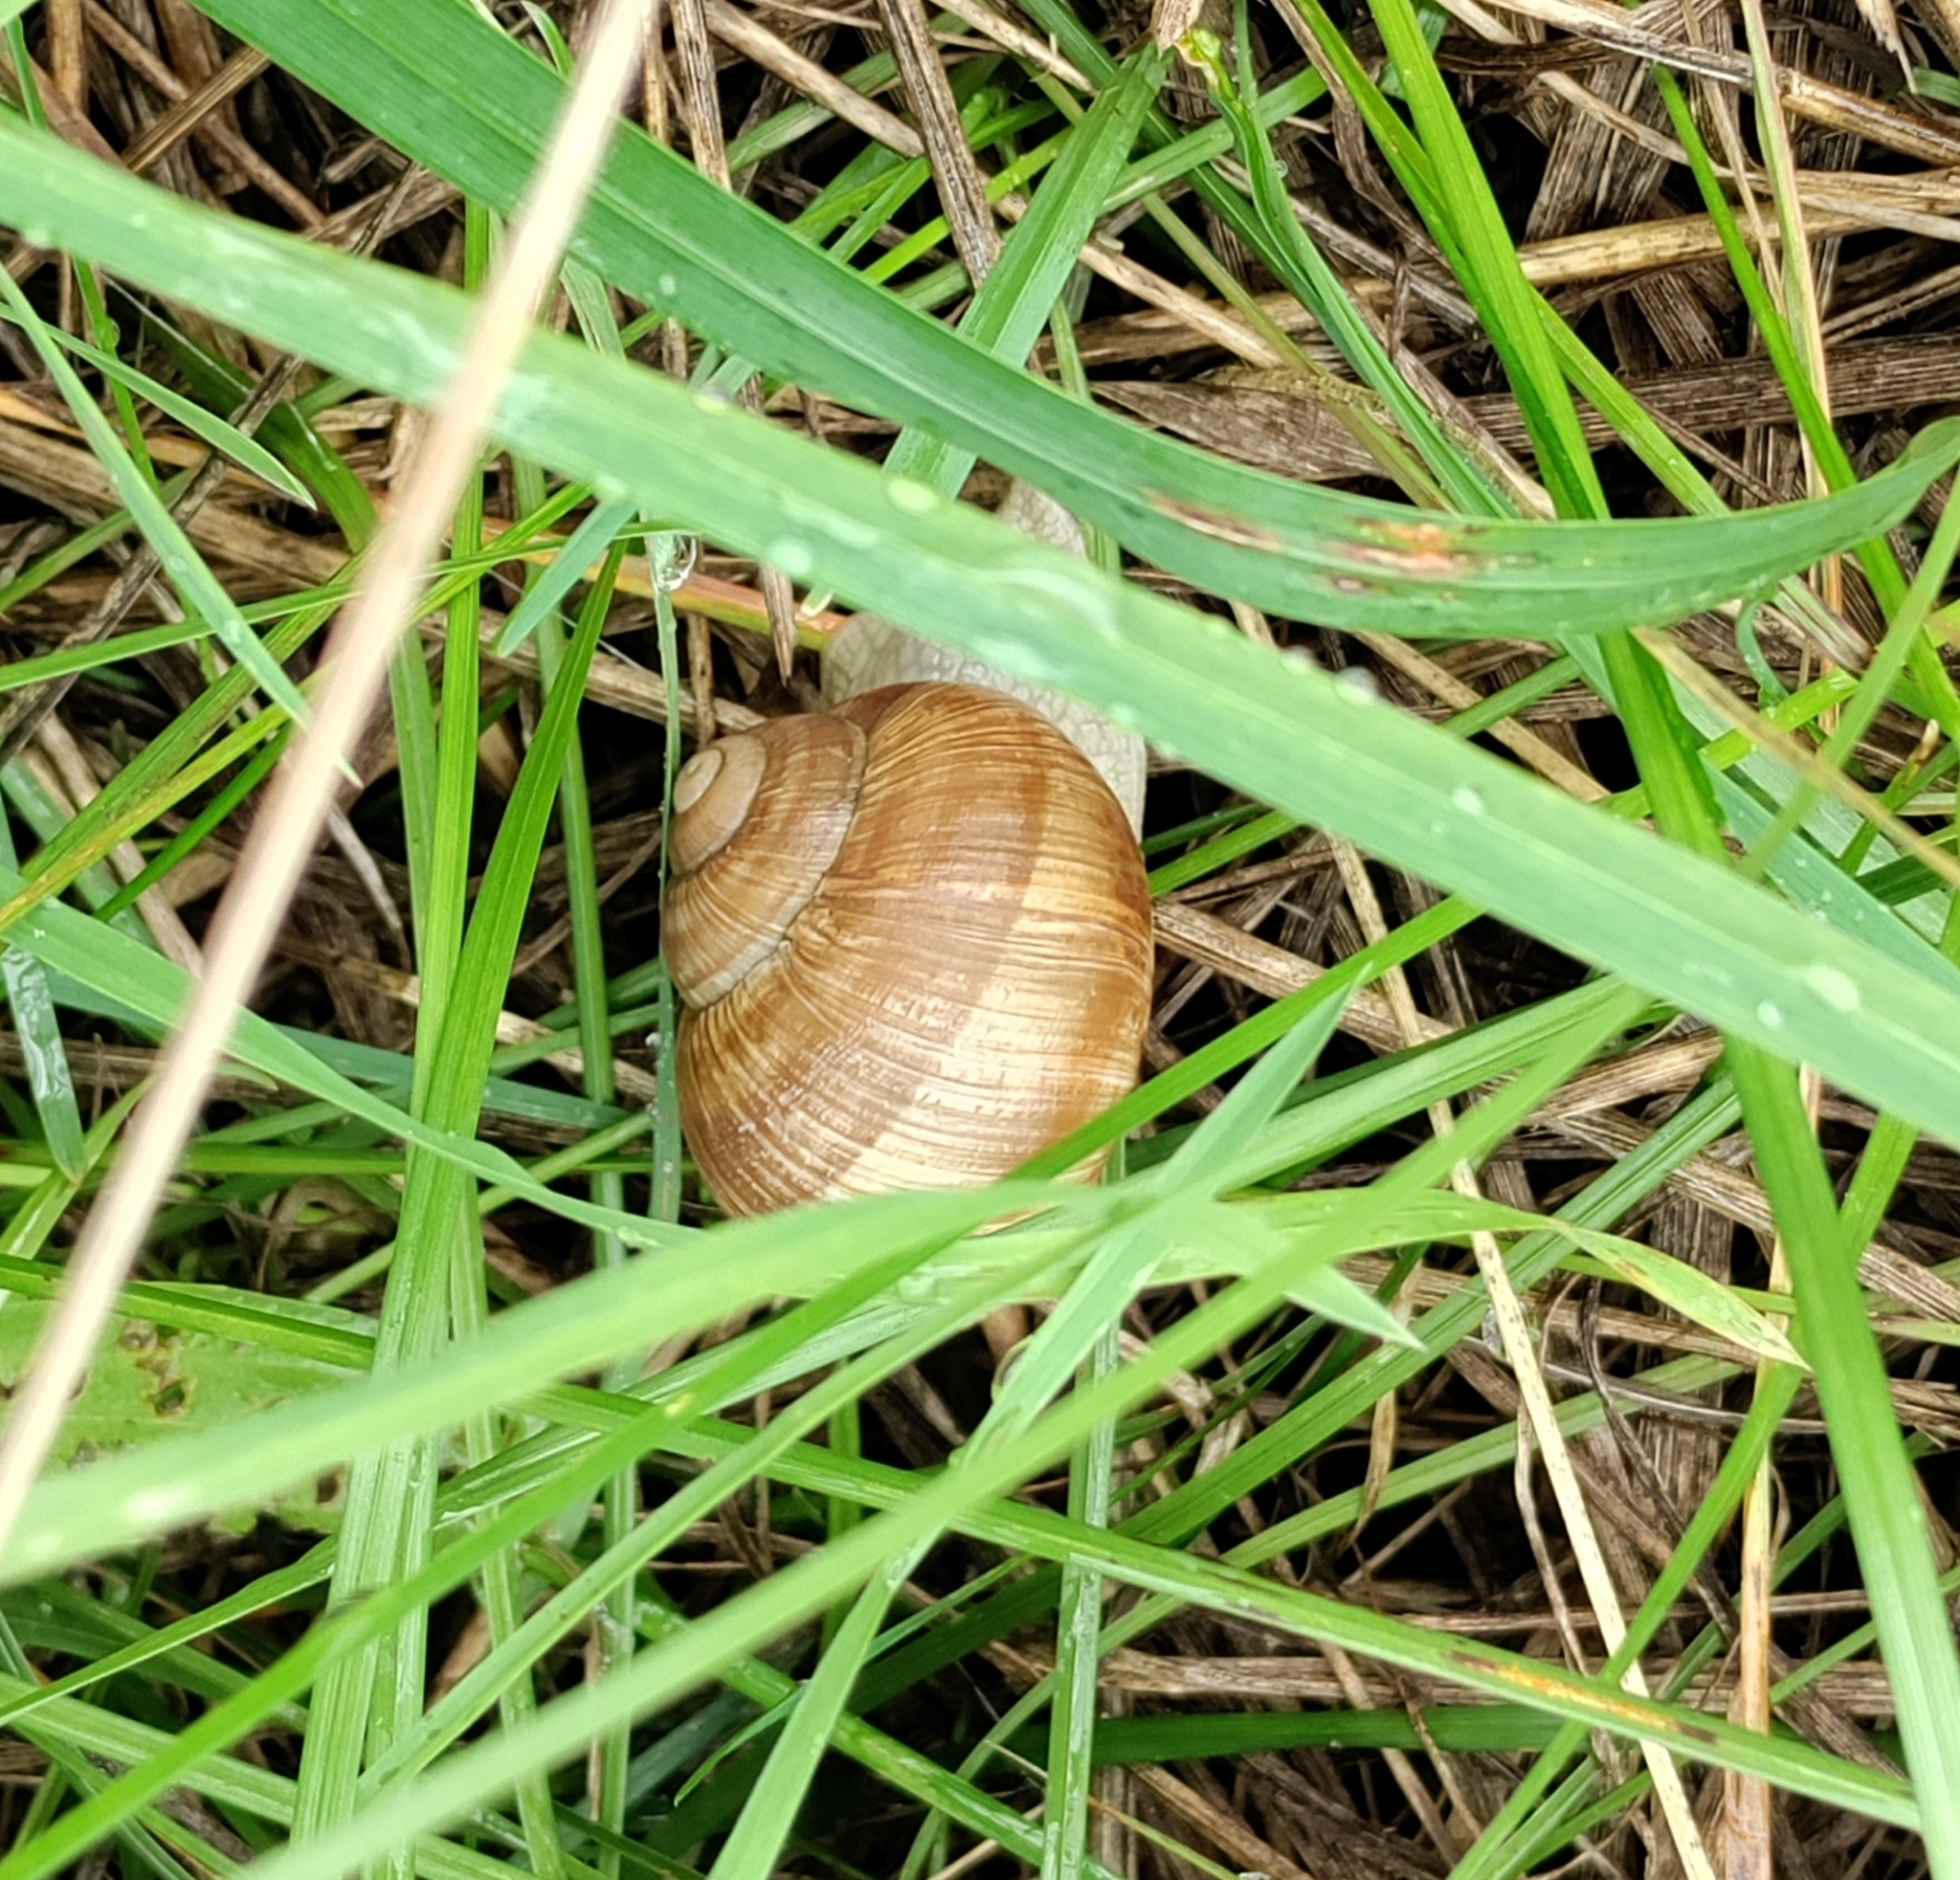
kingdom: Animalia
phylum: Mollusca
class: Gastropoda
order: Stylommatophora
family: Helicidae
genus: Helix
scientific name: Helix pomatia
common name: Roman snail
